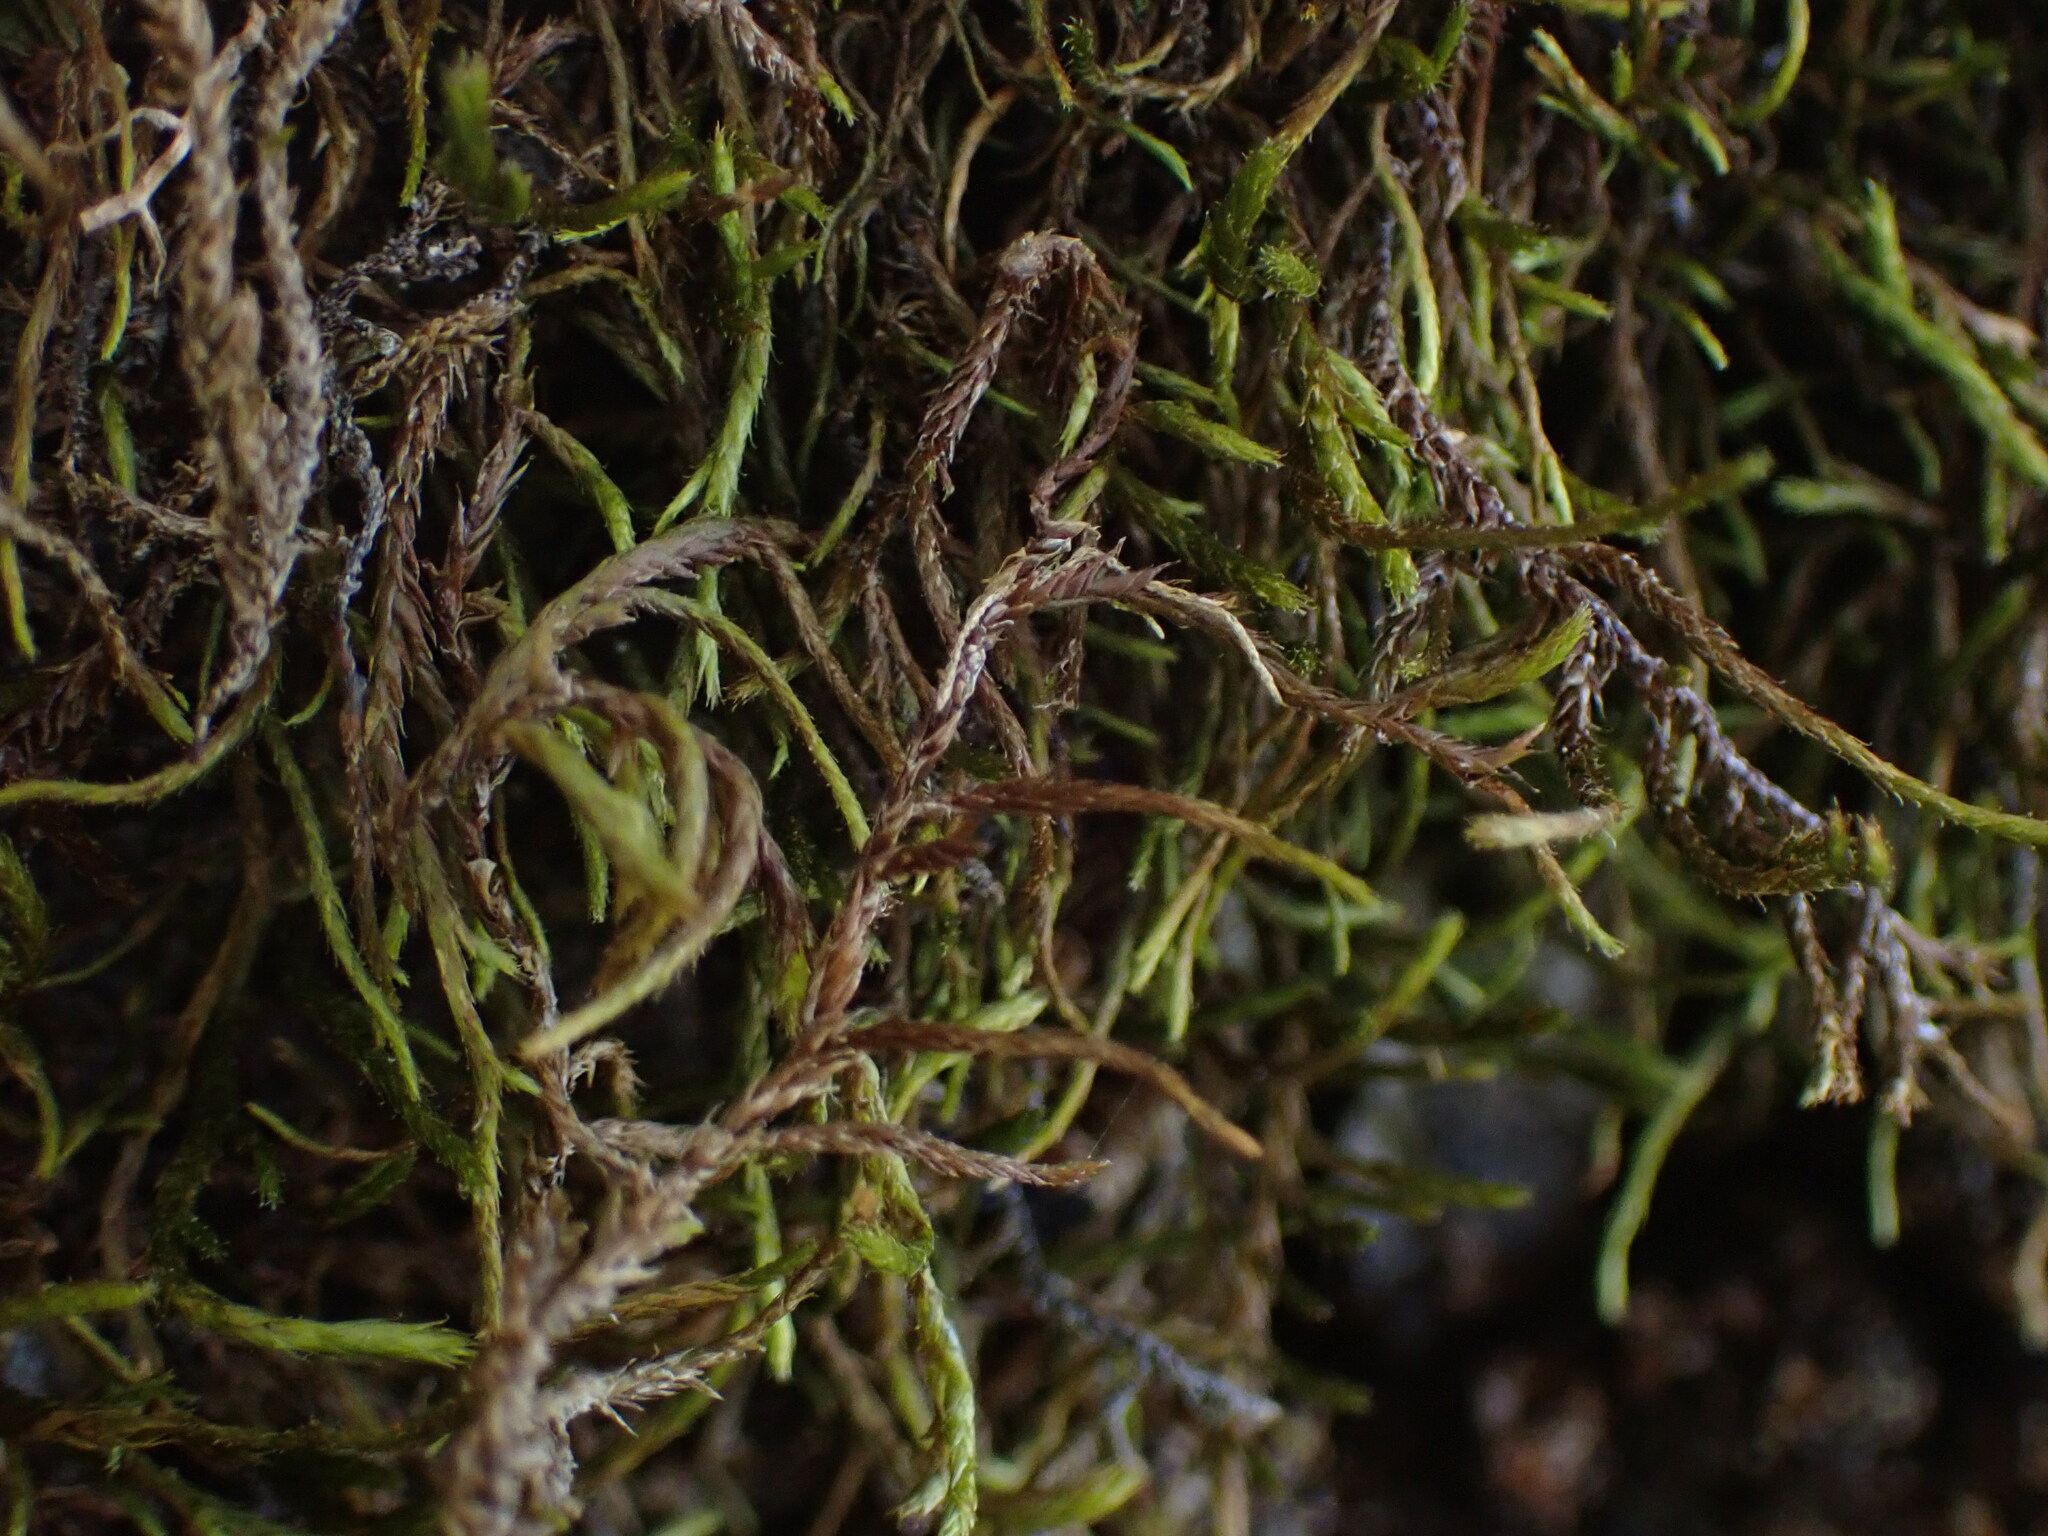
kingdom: Plantae
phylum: Bryophyta
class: Bryopsida
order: Hypnales
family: Antitrichiaceae
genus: Antitrichia
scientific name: Antitrichia californica
